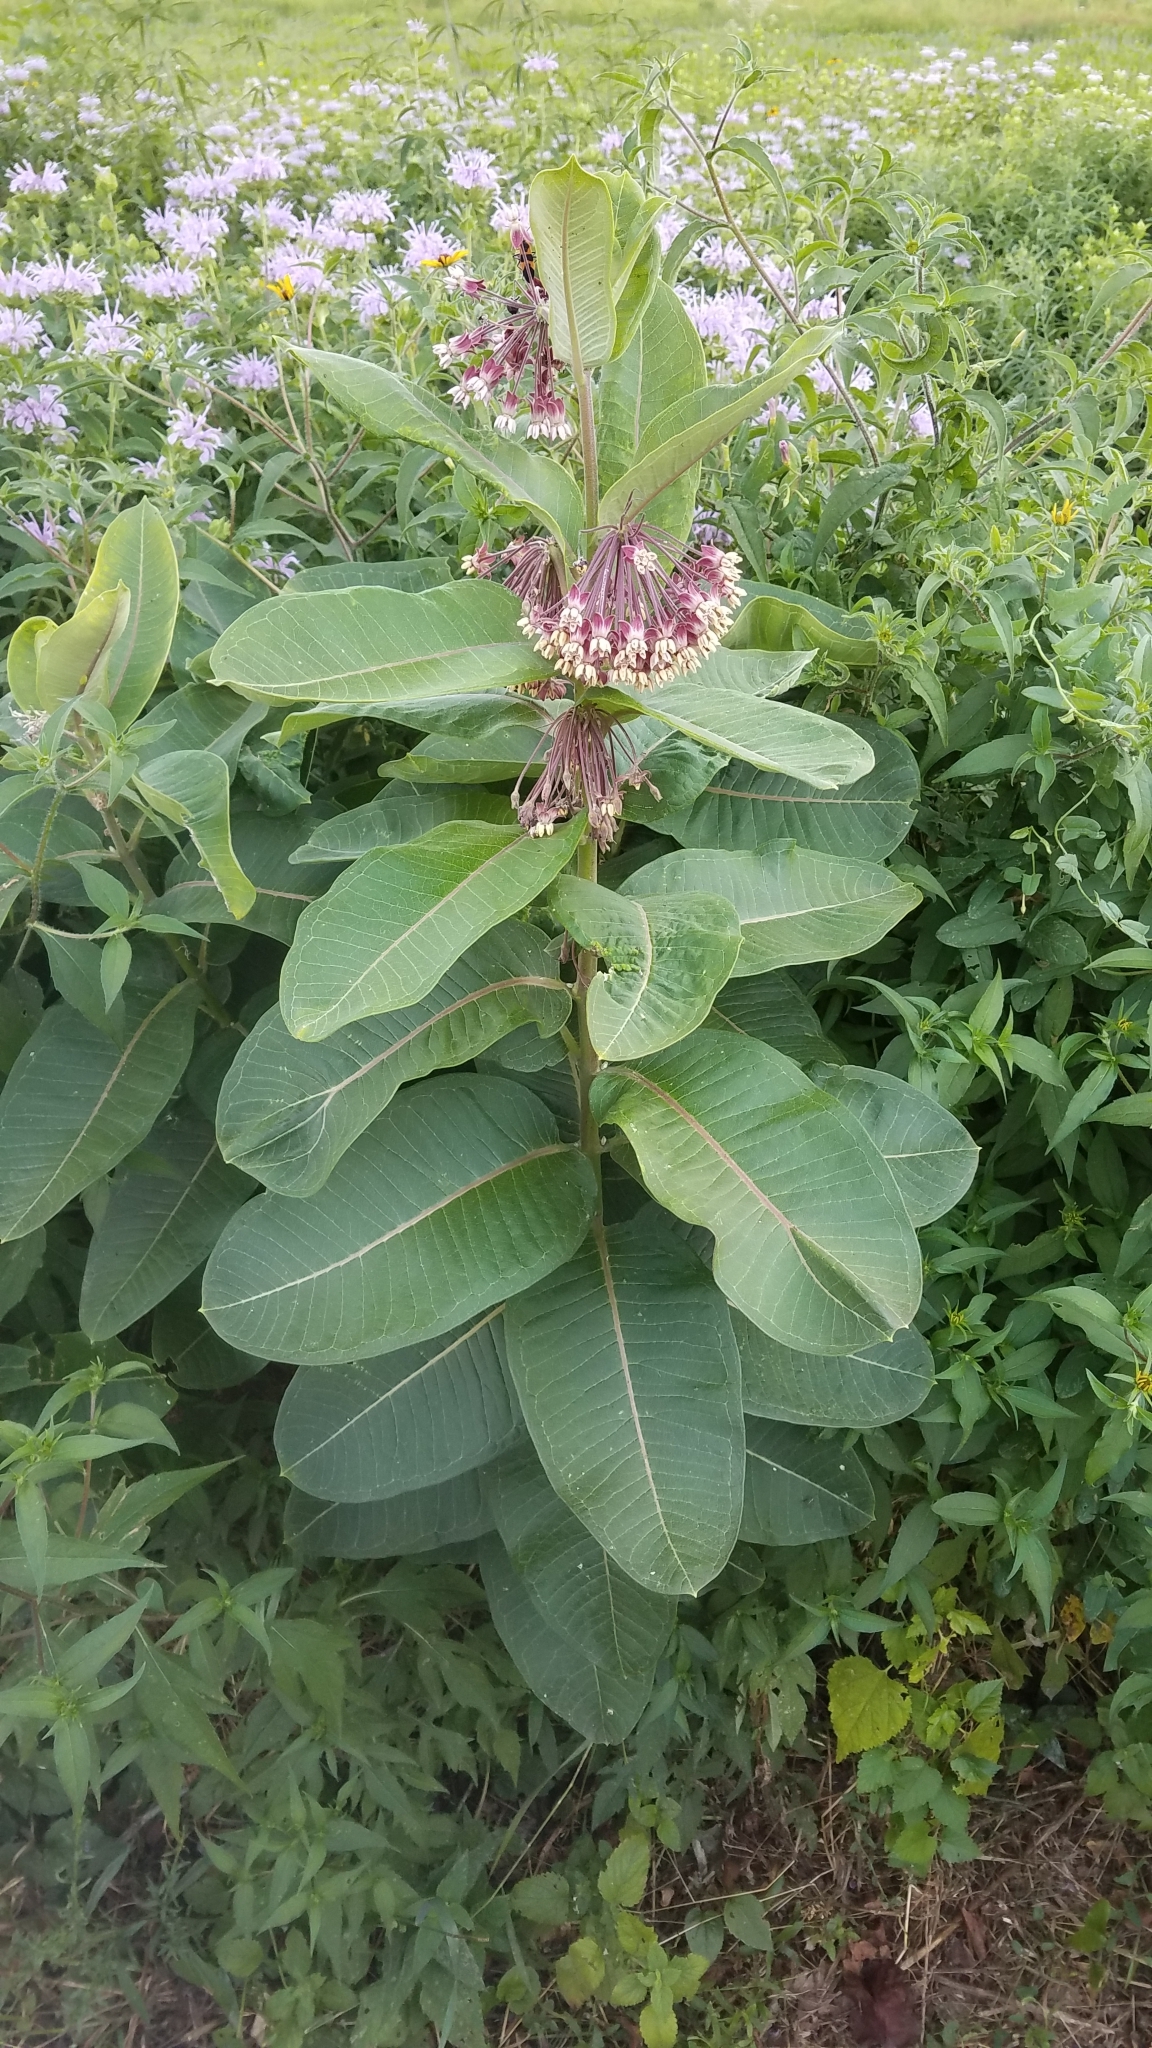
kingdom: Plantae
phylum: Tracheophyta
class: Magnoliopsida
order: Gentianales
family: Apocynaceae
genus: Asclepias
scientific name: Asclepias syriaca
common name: Common milkweed
